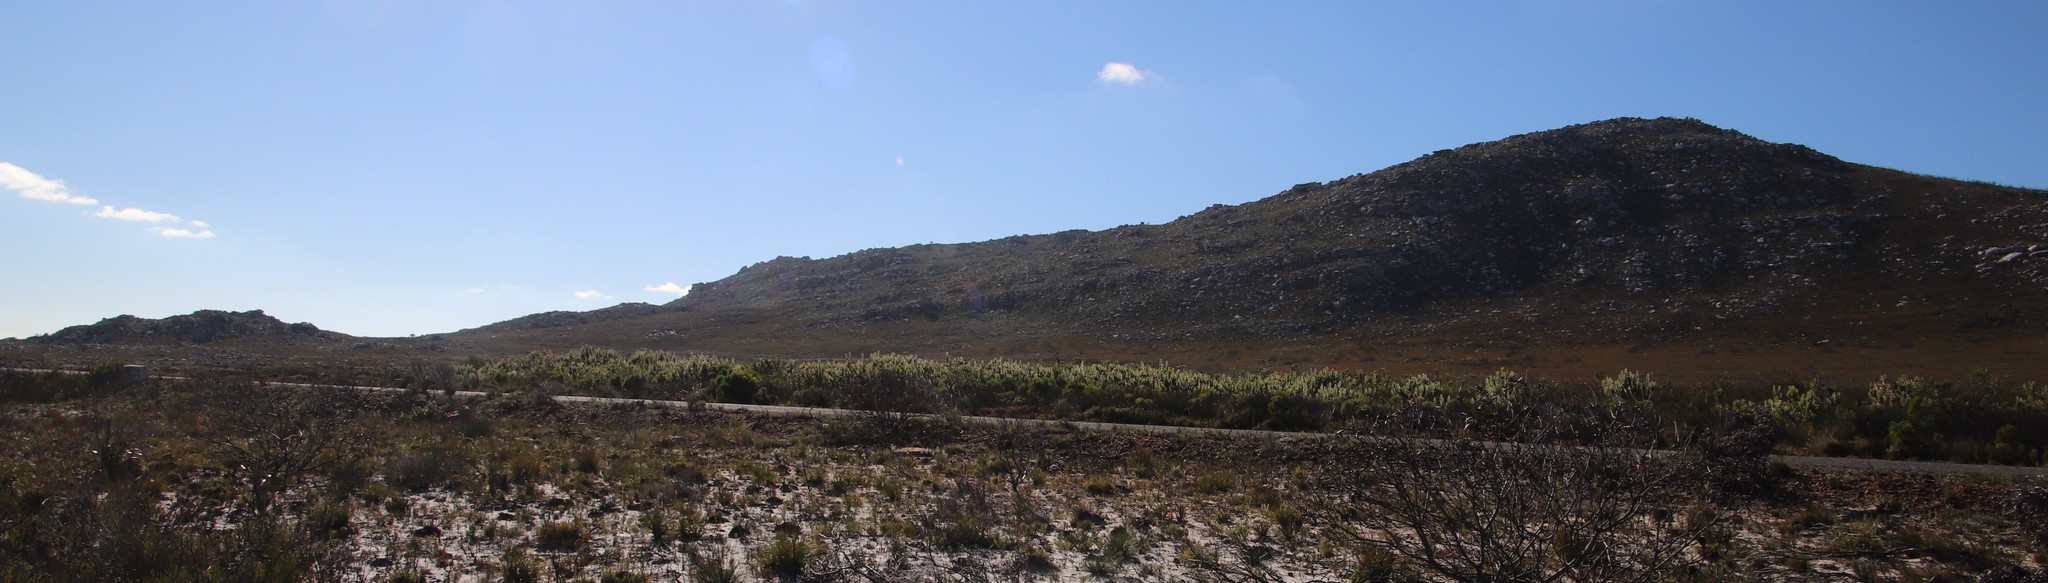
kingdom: Plantae
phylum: Tracheophyta
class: Magnoliopsida
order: Proteales
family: Proteaceae
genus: Mimetes
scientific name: Mimetes hirtus
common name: Marsh pagoda
